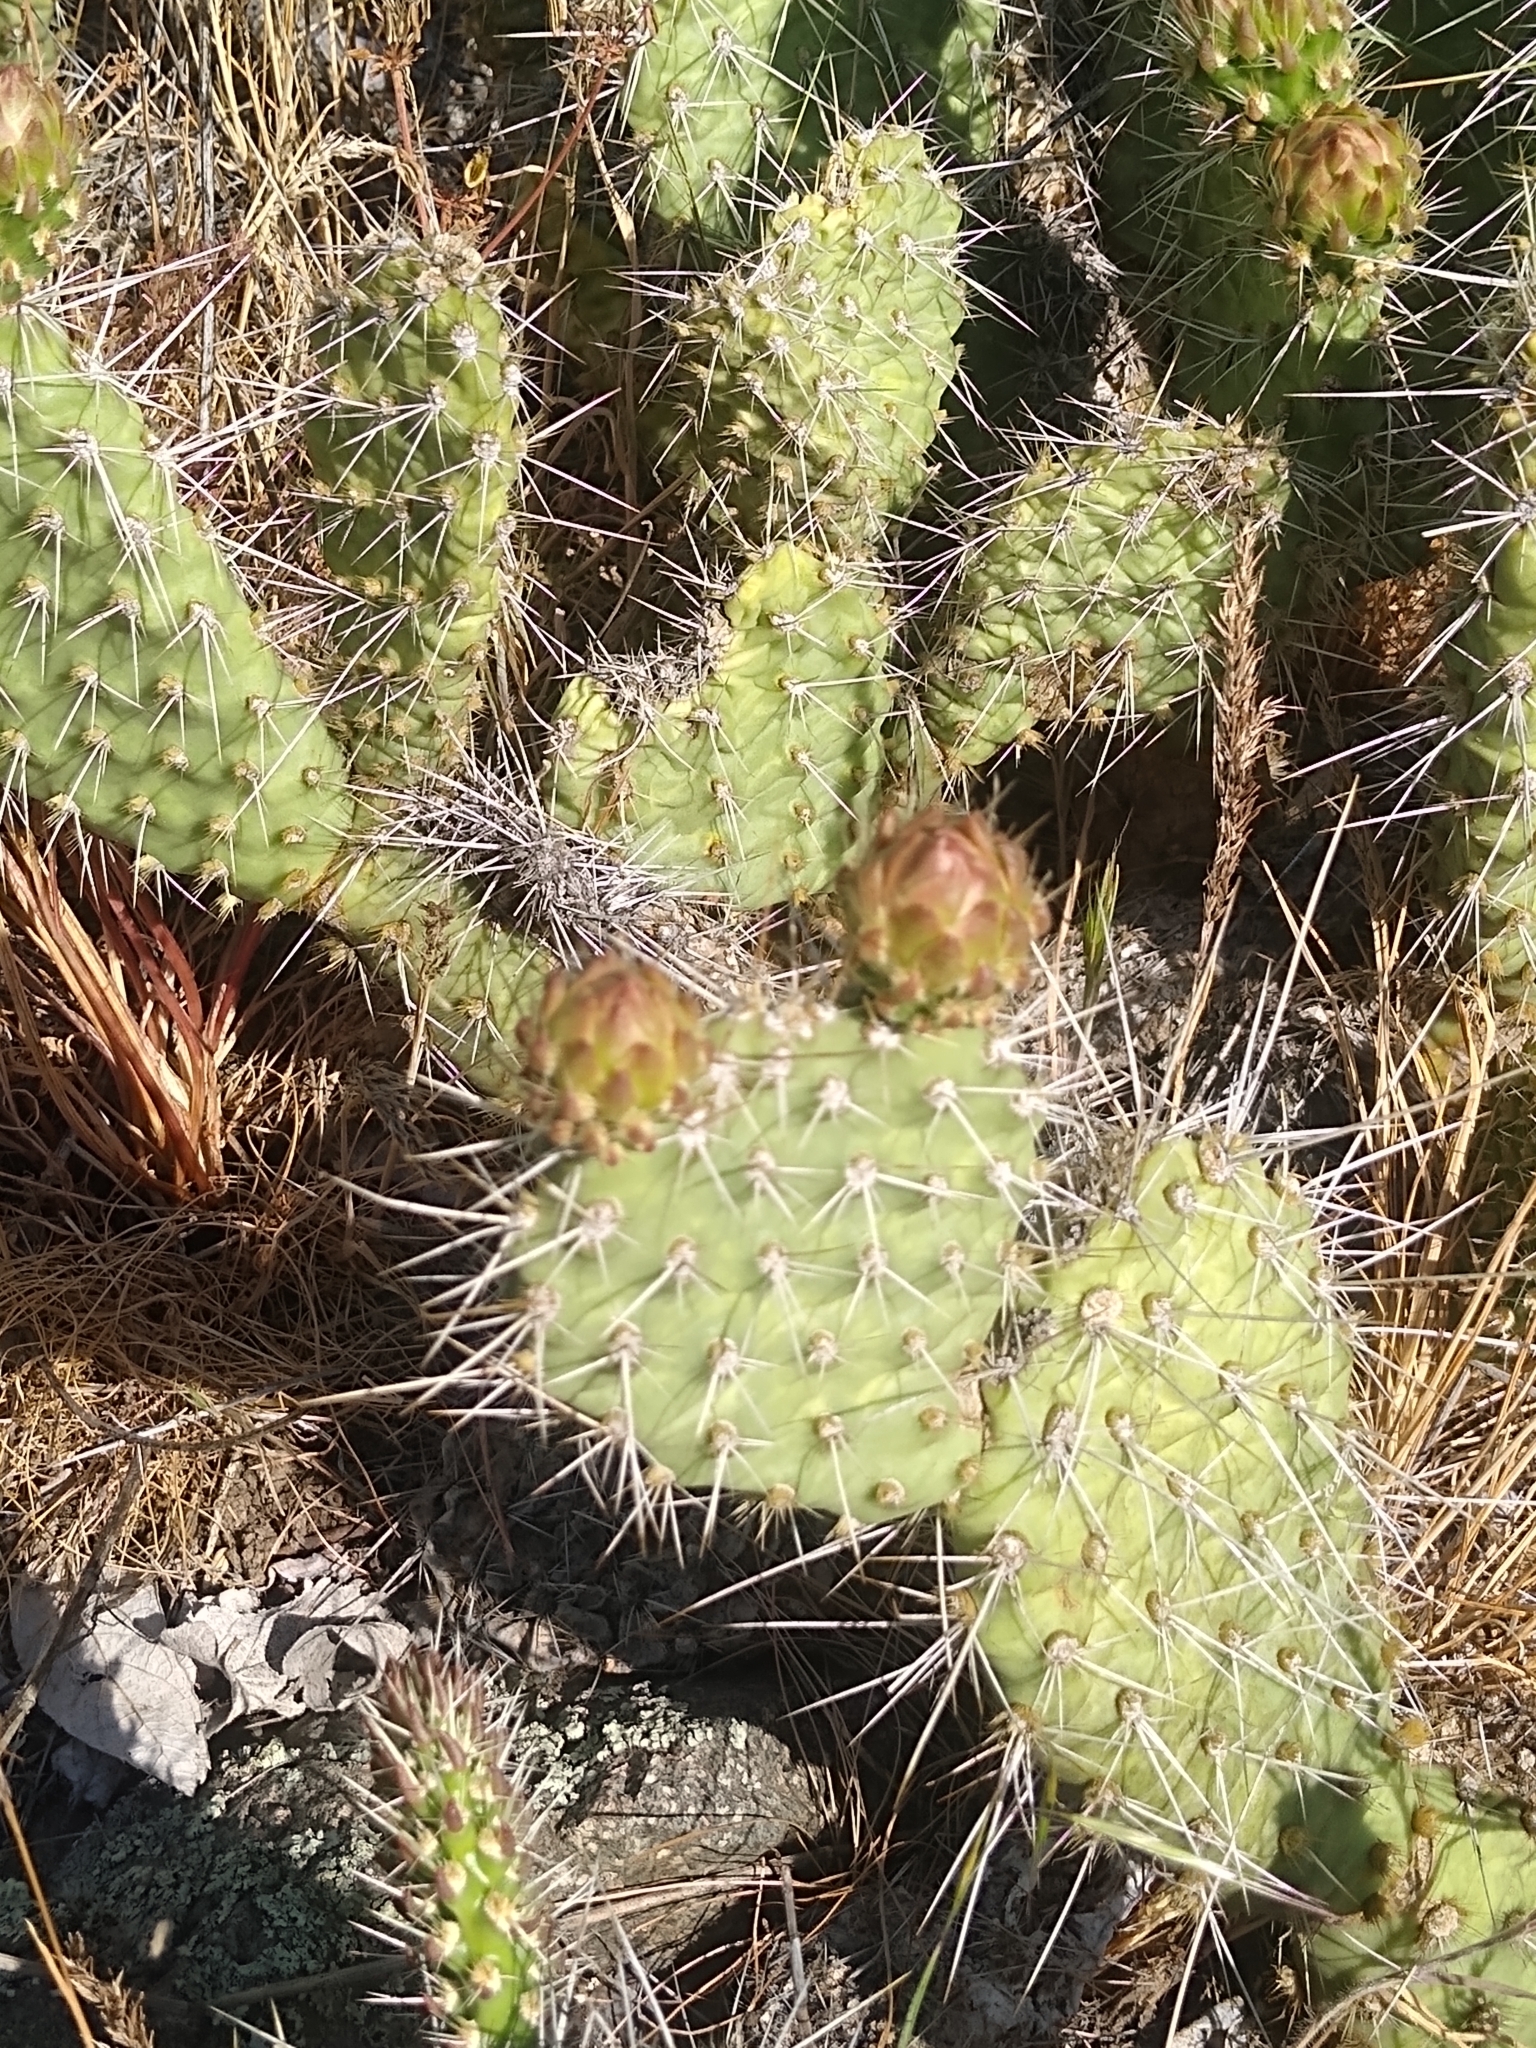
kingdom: Plantae
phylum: Tracheophyta
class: Magnoliopsida
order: Caryophyllales
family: Cactaceae
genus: Opuntia
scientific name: Opuntia polyacantha
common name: Plains prickly-pear
